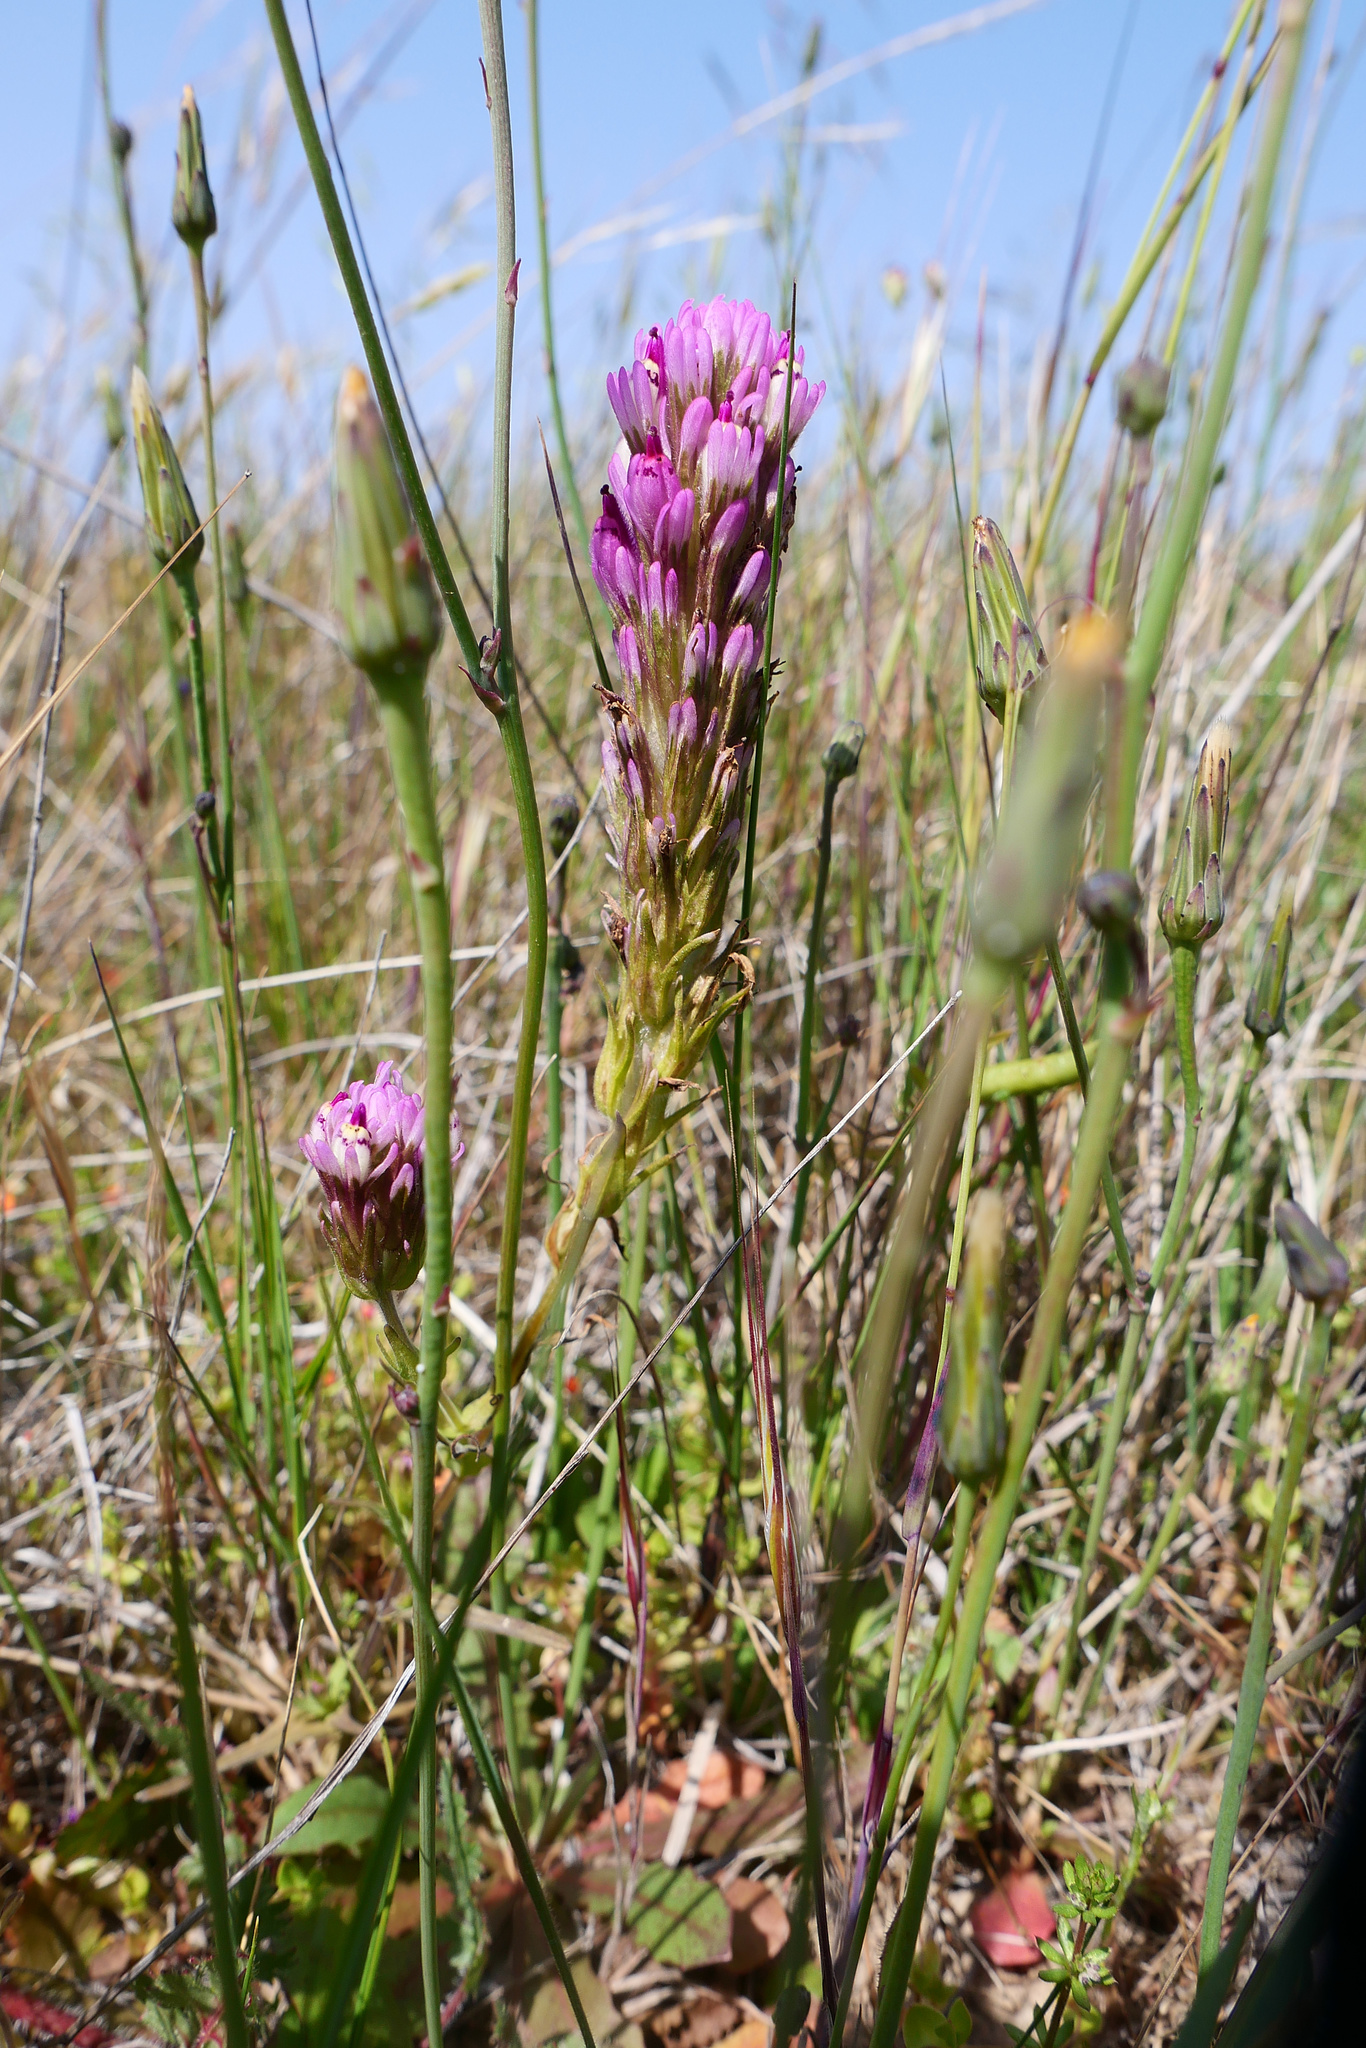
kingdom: Plantae
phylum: Tracheophyta
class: Magnoliopsida
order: Lamiales
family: Orobanchaceae
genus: Castilleja
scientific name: Castilleja densiflora
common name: Dense-flower indian paintbrush
